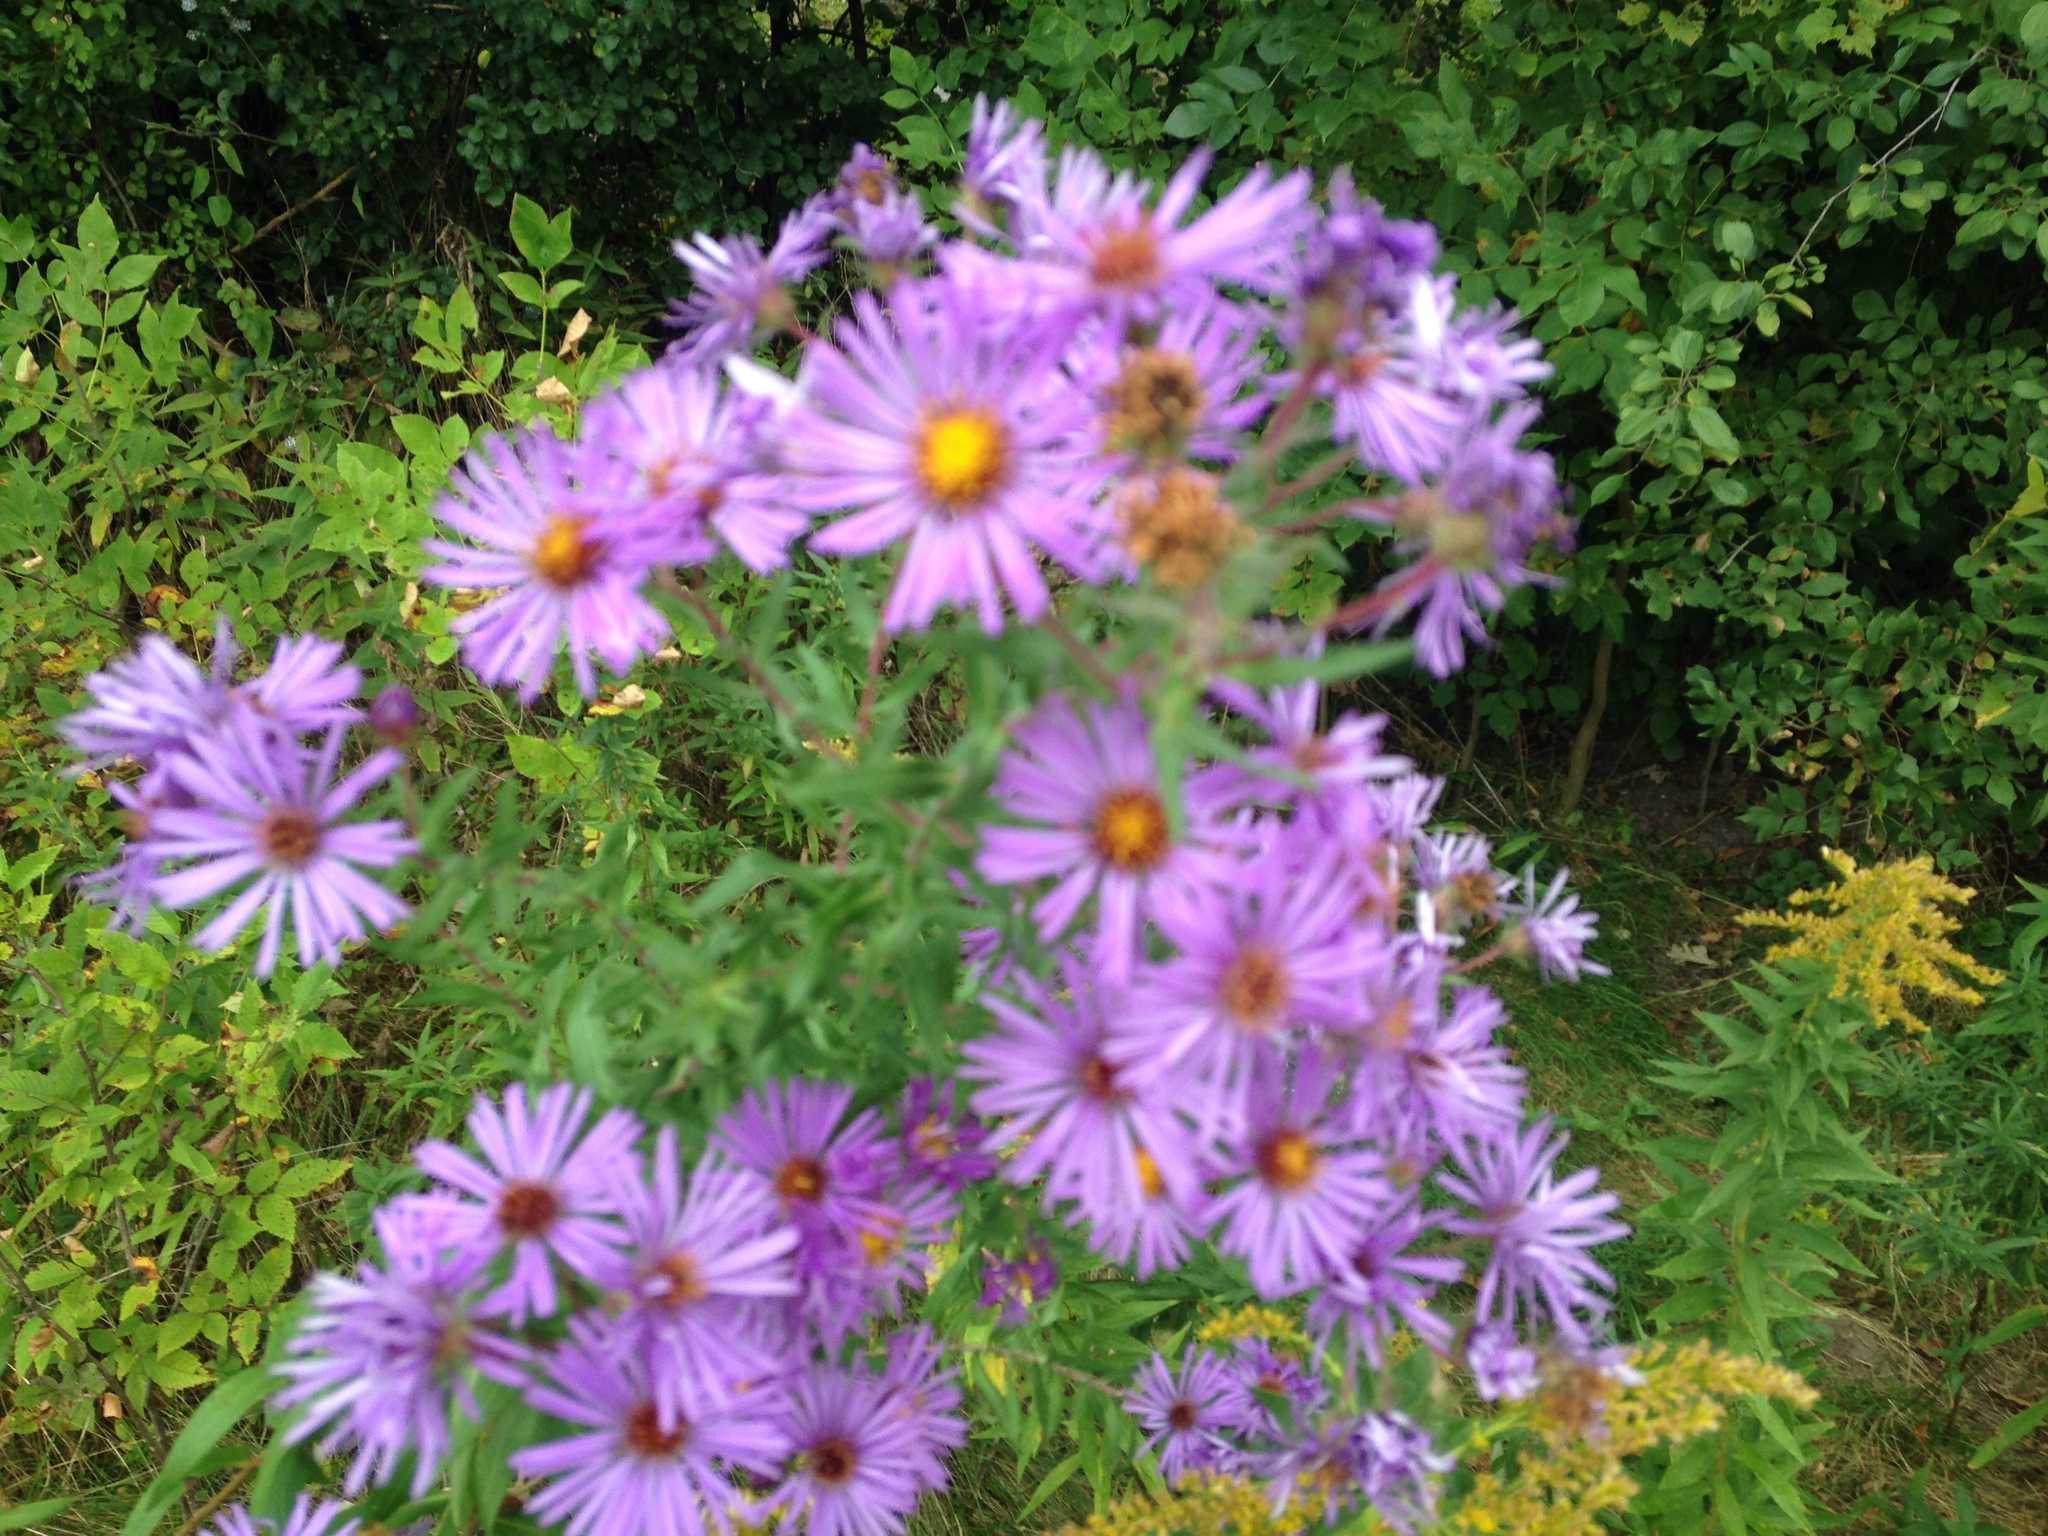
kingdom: Plantae
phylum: Tracheophyta
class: Magnoliopsida
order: Asterales
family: Asteraceae
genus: Symphyotrichum
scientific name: Symphyotrichum novae-angliae
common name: Michaelmas daisy
